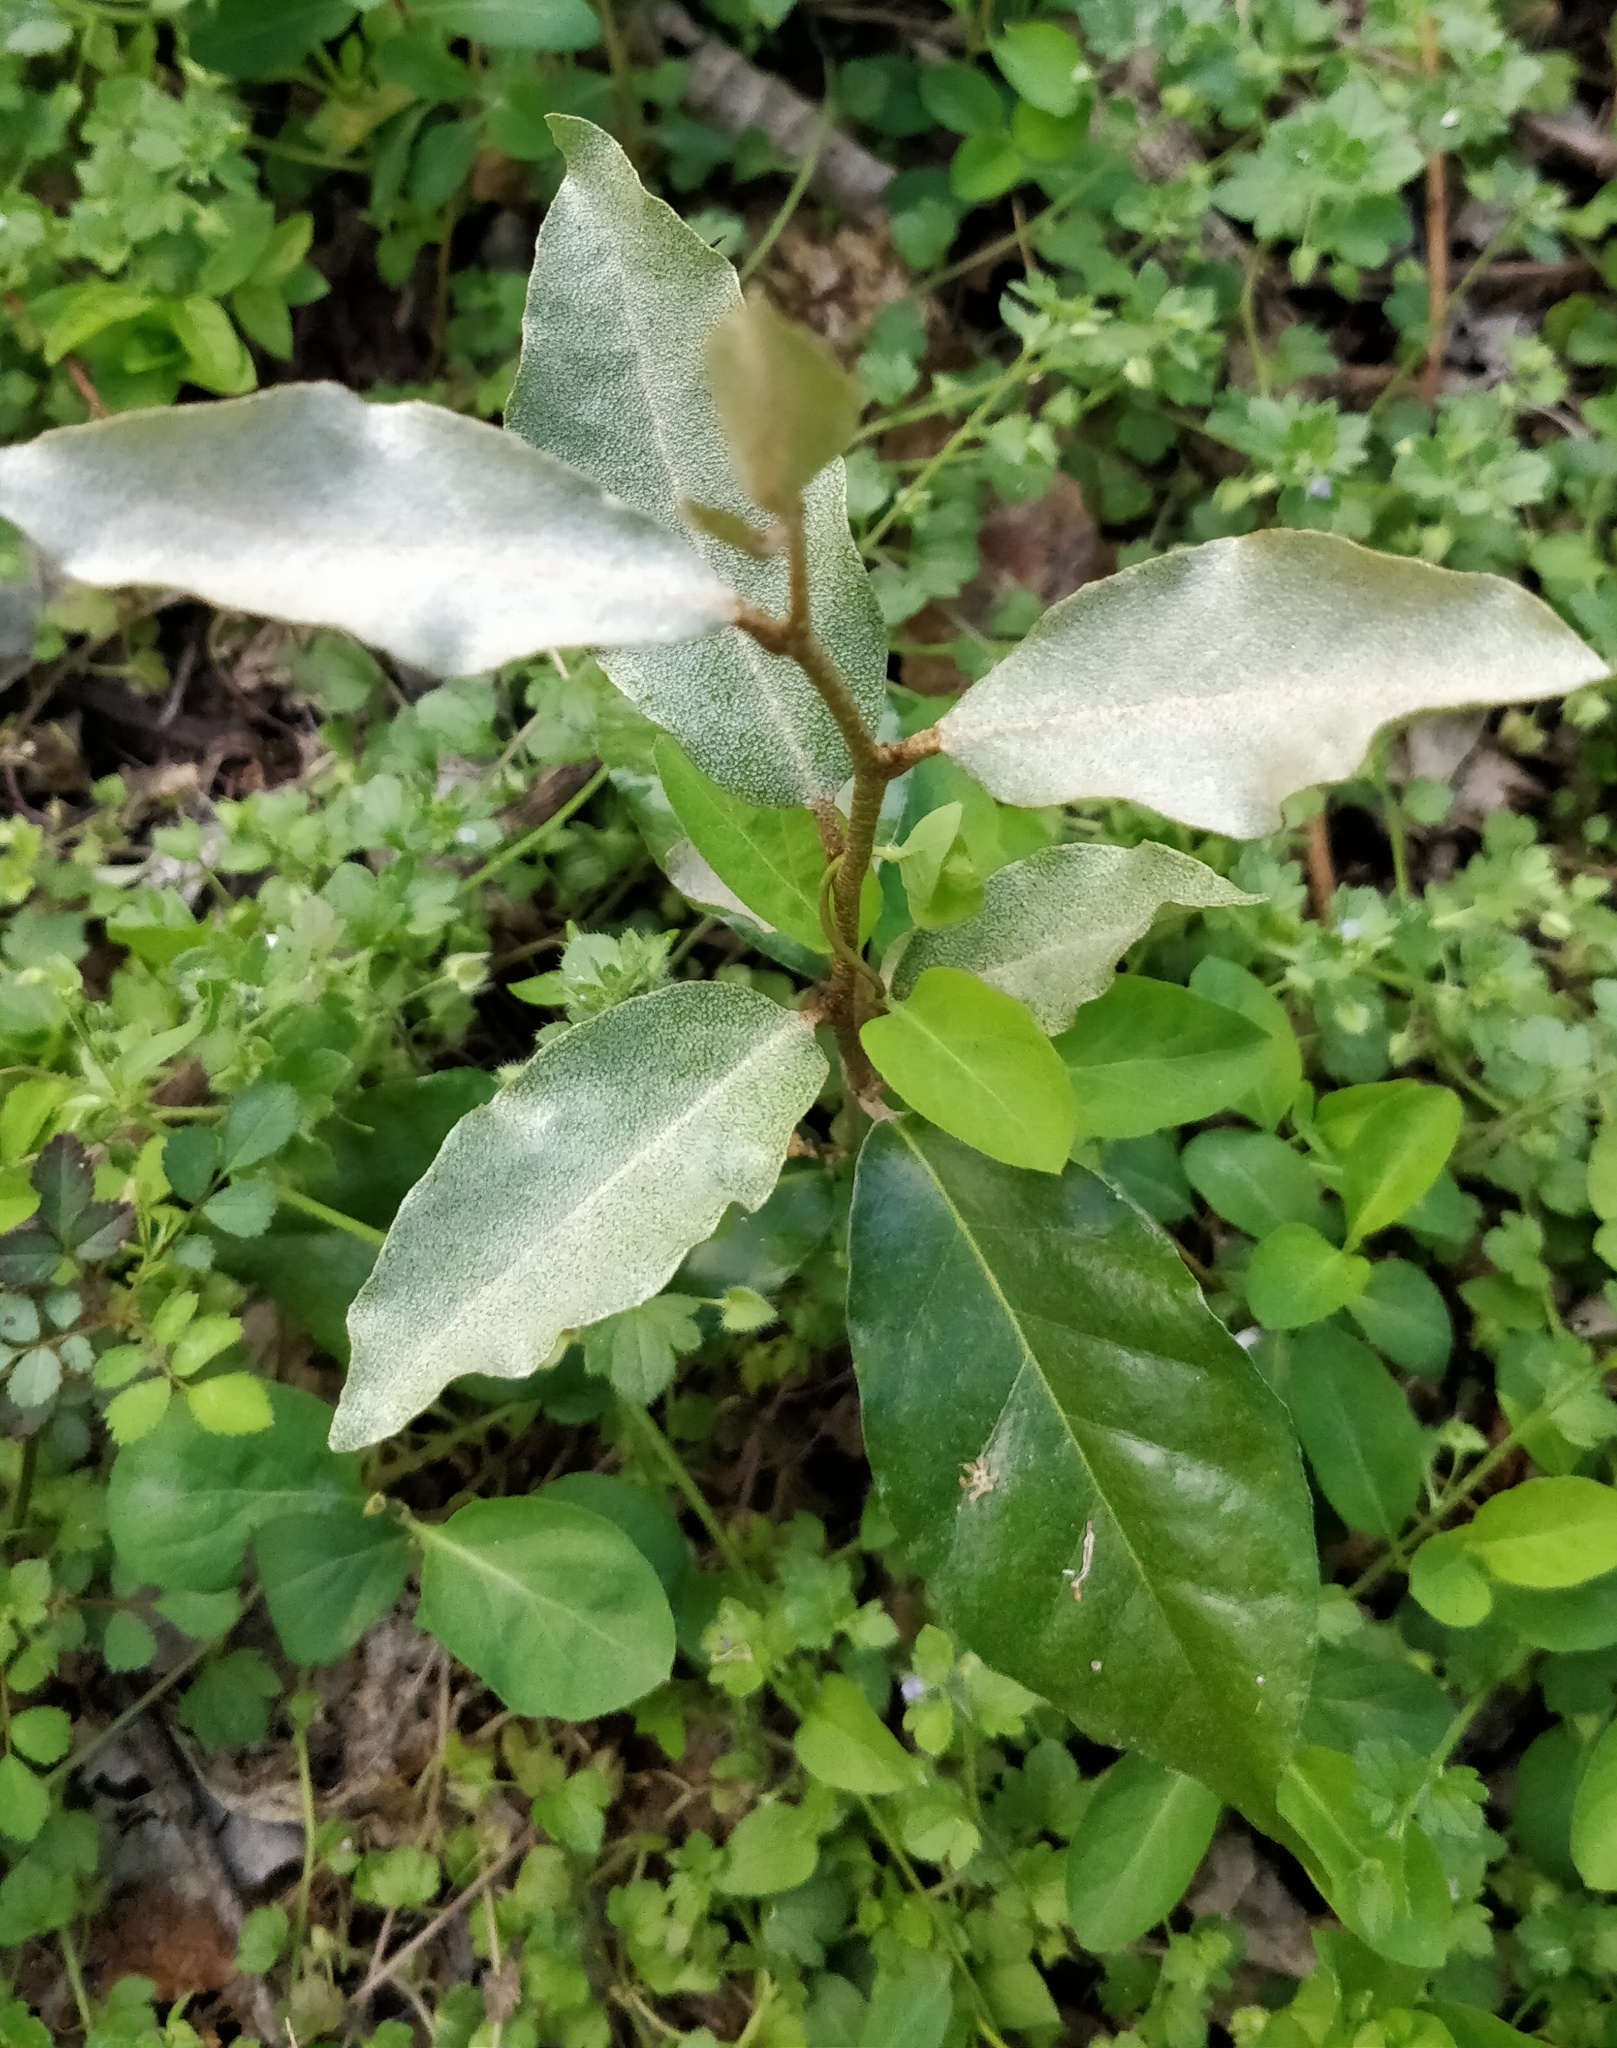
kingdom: Plantae
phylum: Tracheophyta
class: Magnoliopsida
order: Rosales
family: Elaeagnaceae
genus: Elaeagnus
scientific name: Elaeagnus pungens
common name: Spiny oleaster
